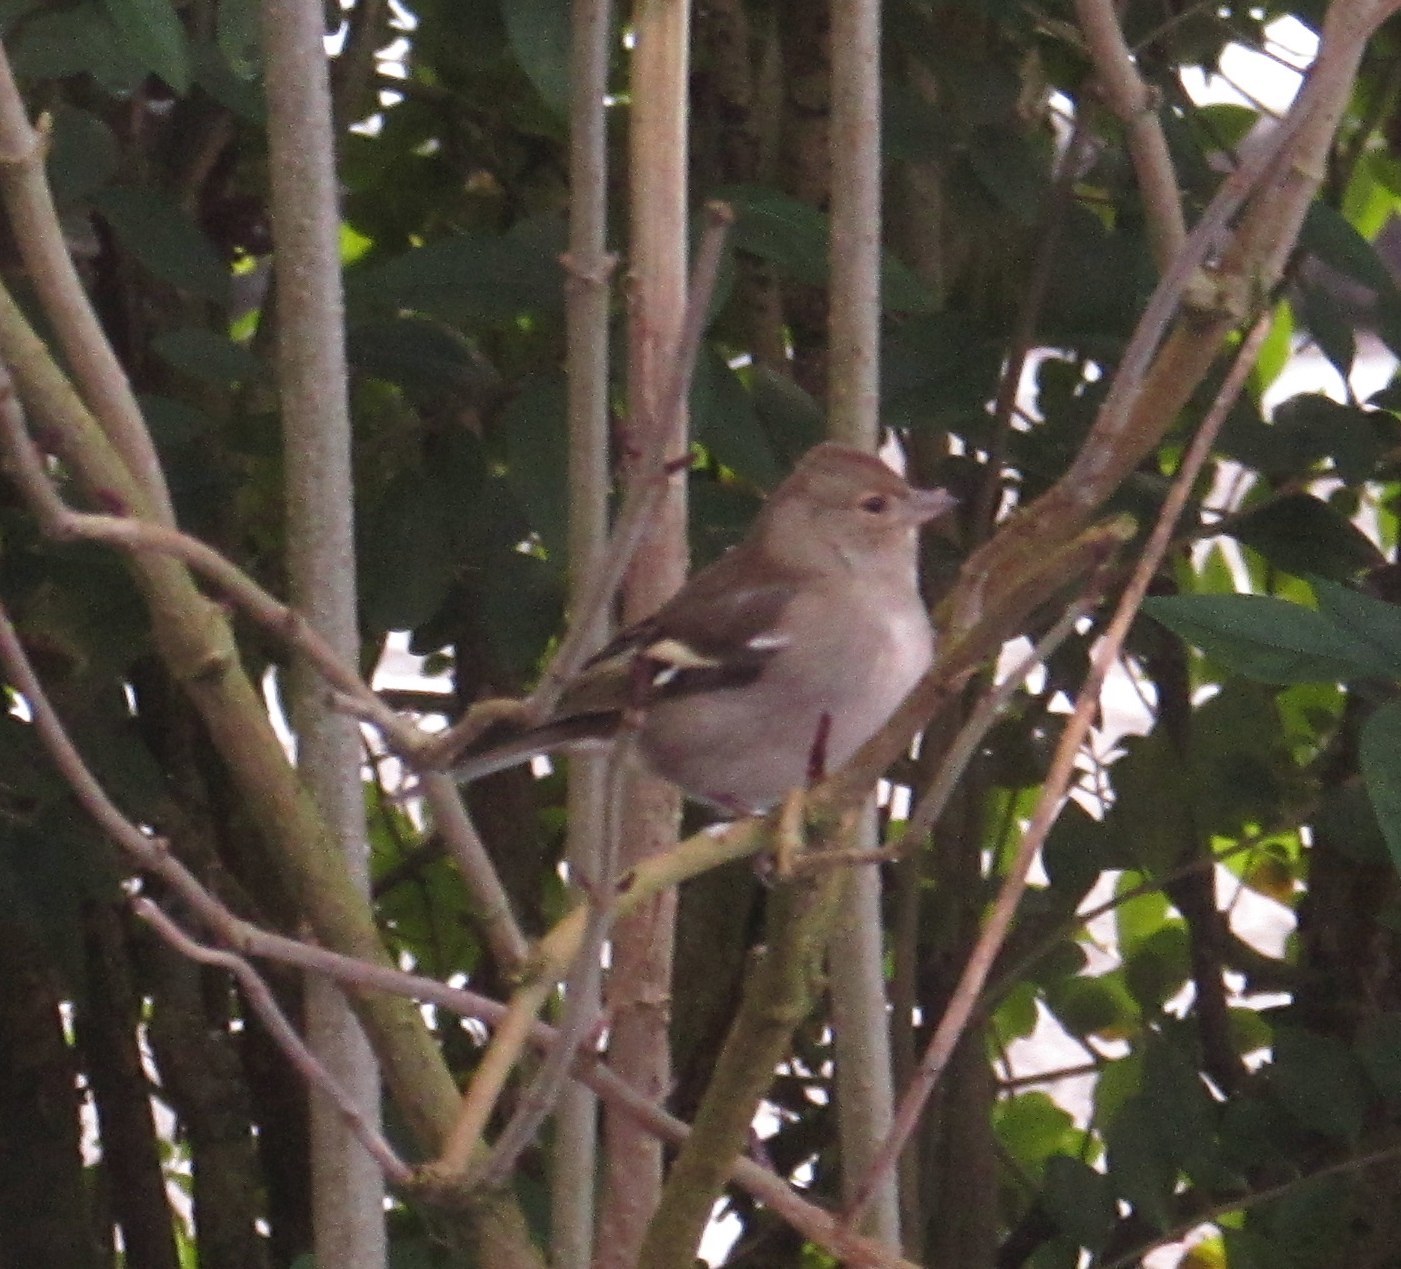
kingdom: Animalia
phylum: Chordata
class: Aves
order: Passeriformes
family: Fringillidae
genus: Fringilla
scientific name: Fringilla coelebs
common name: Common chaffinch
